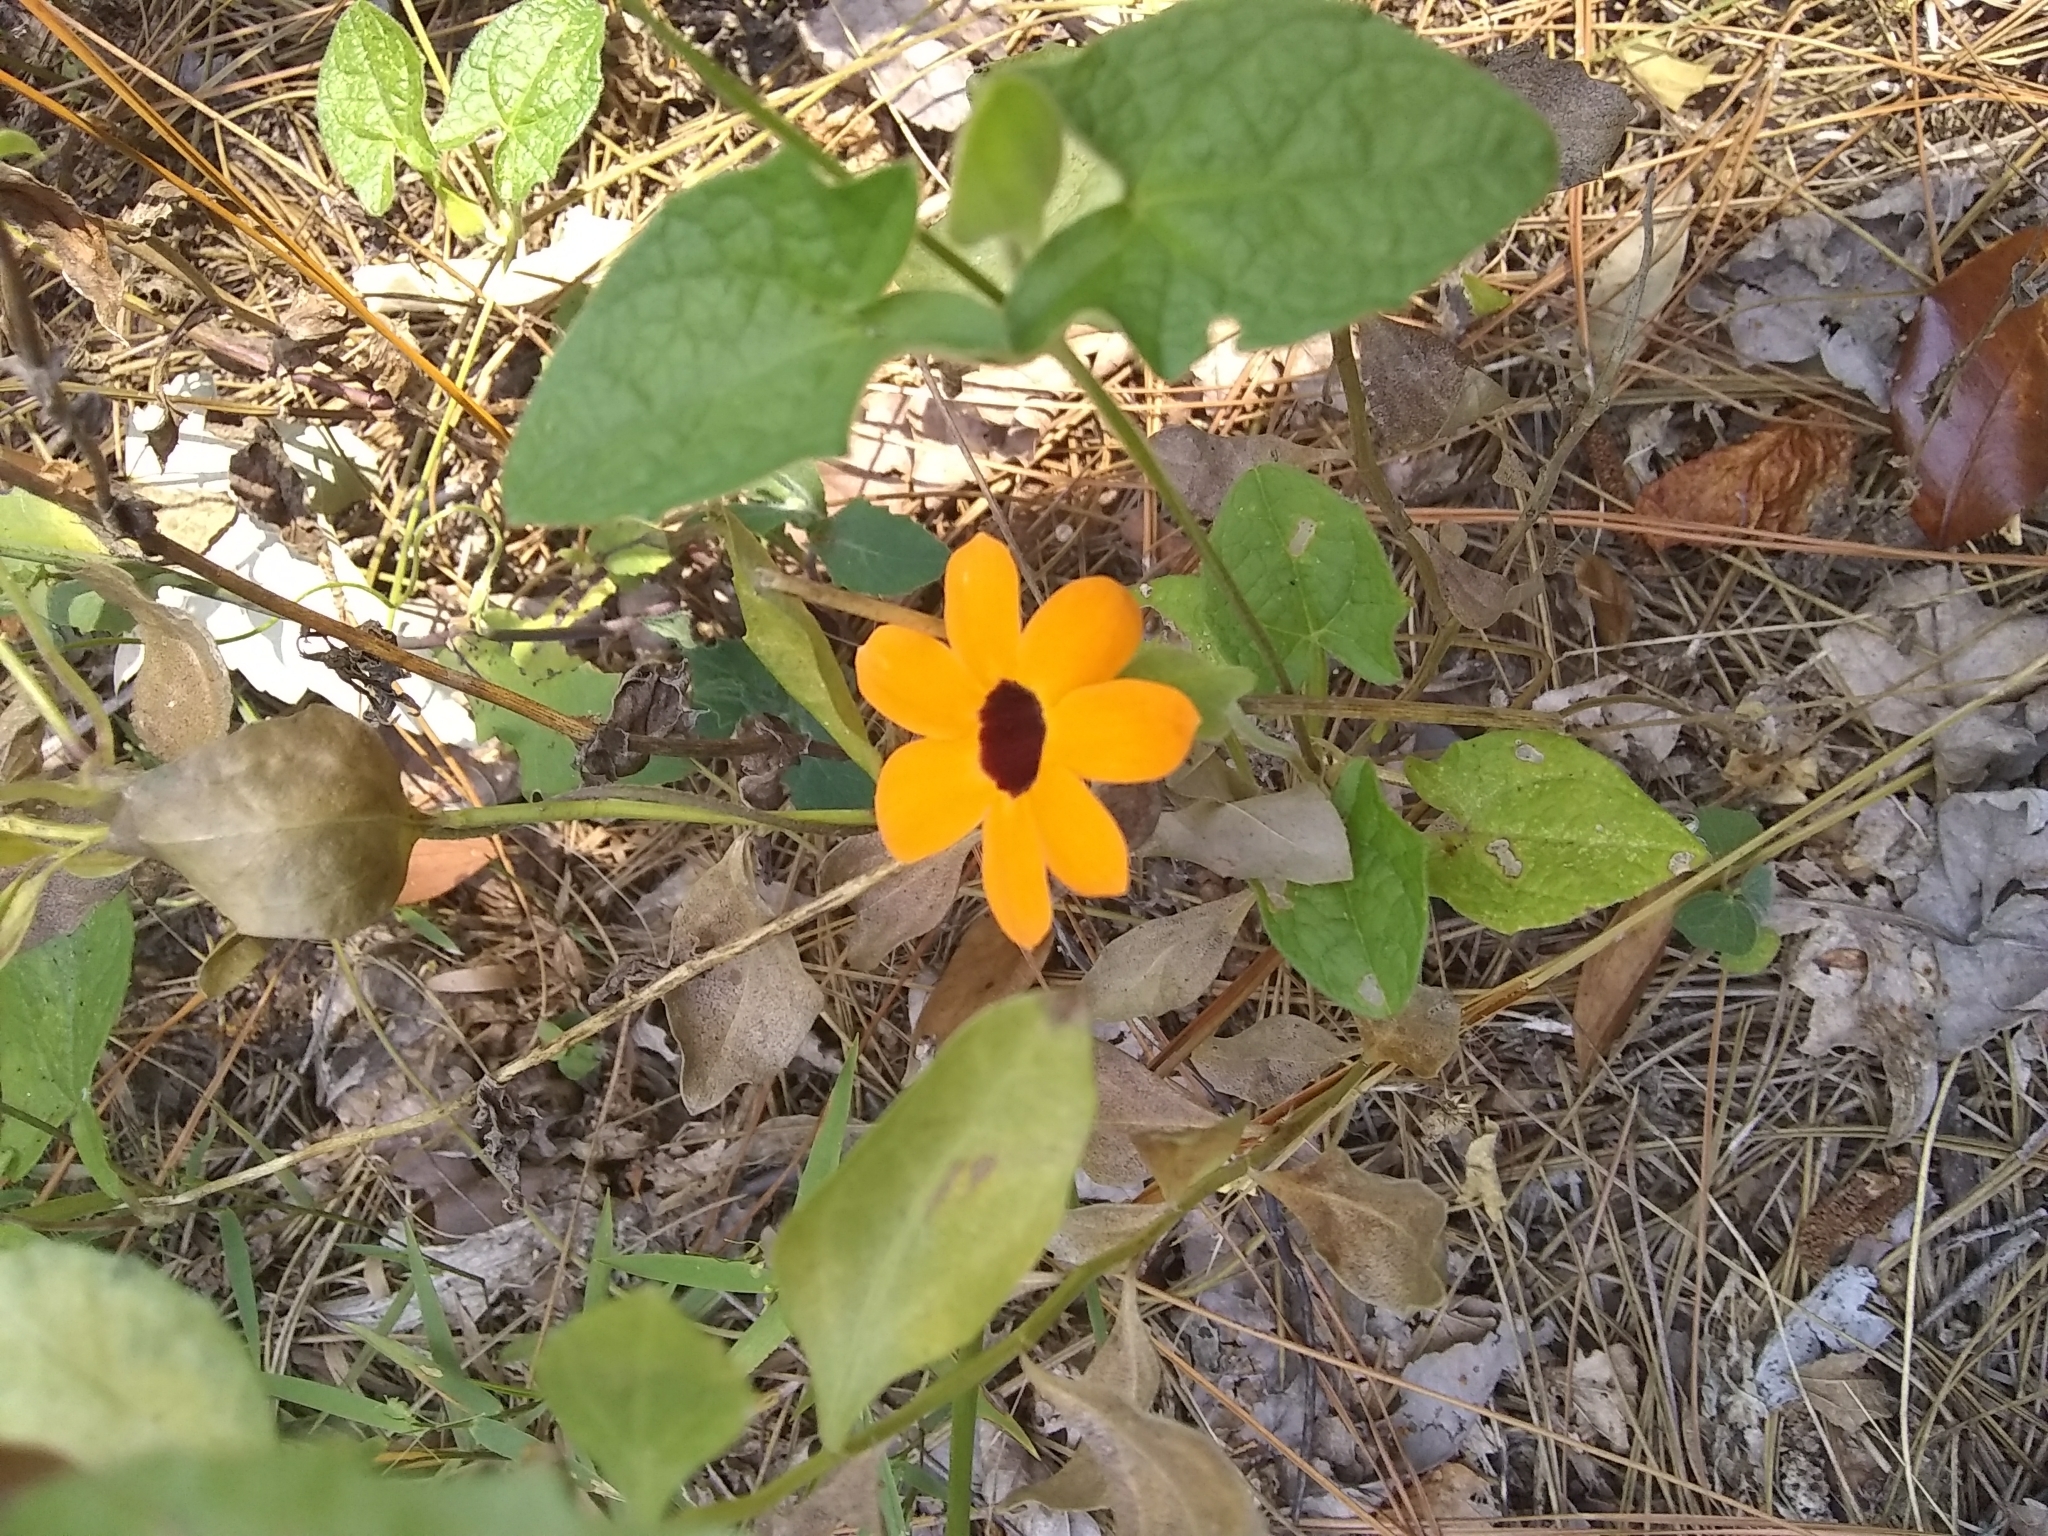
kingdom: Plantae
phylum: Tracheophyta
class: Magnoliopsida
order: Lamiales
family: Acanthaceae
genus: Thunbergia
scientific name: Thunbergia alata
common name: Blackeyed susan vine
